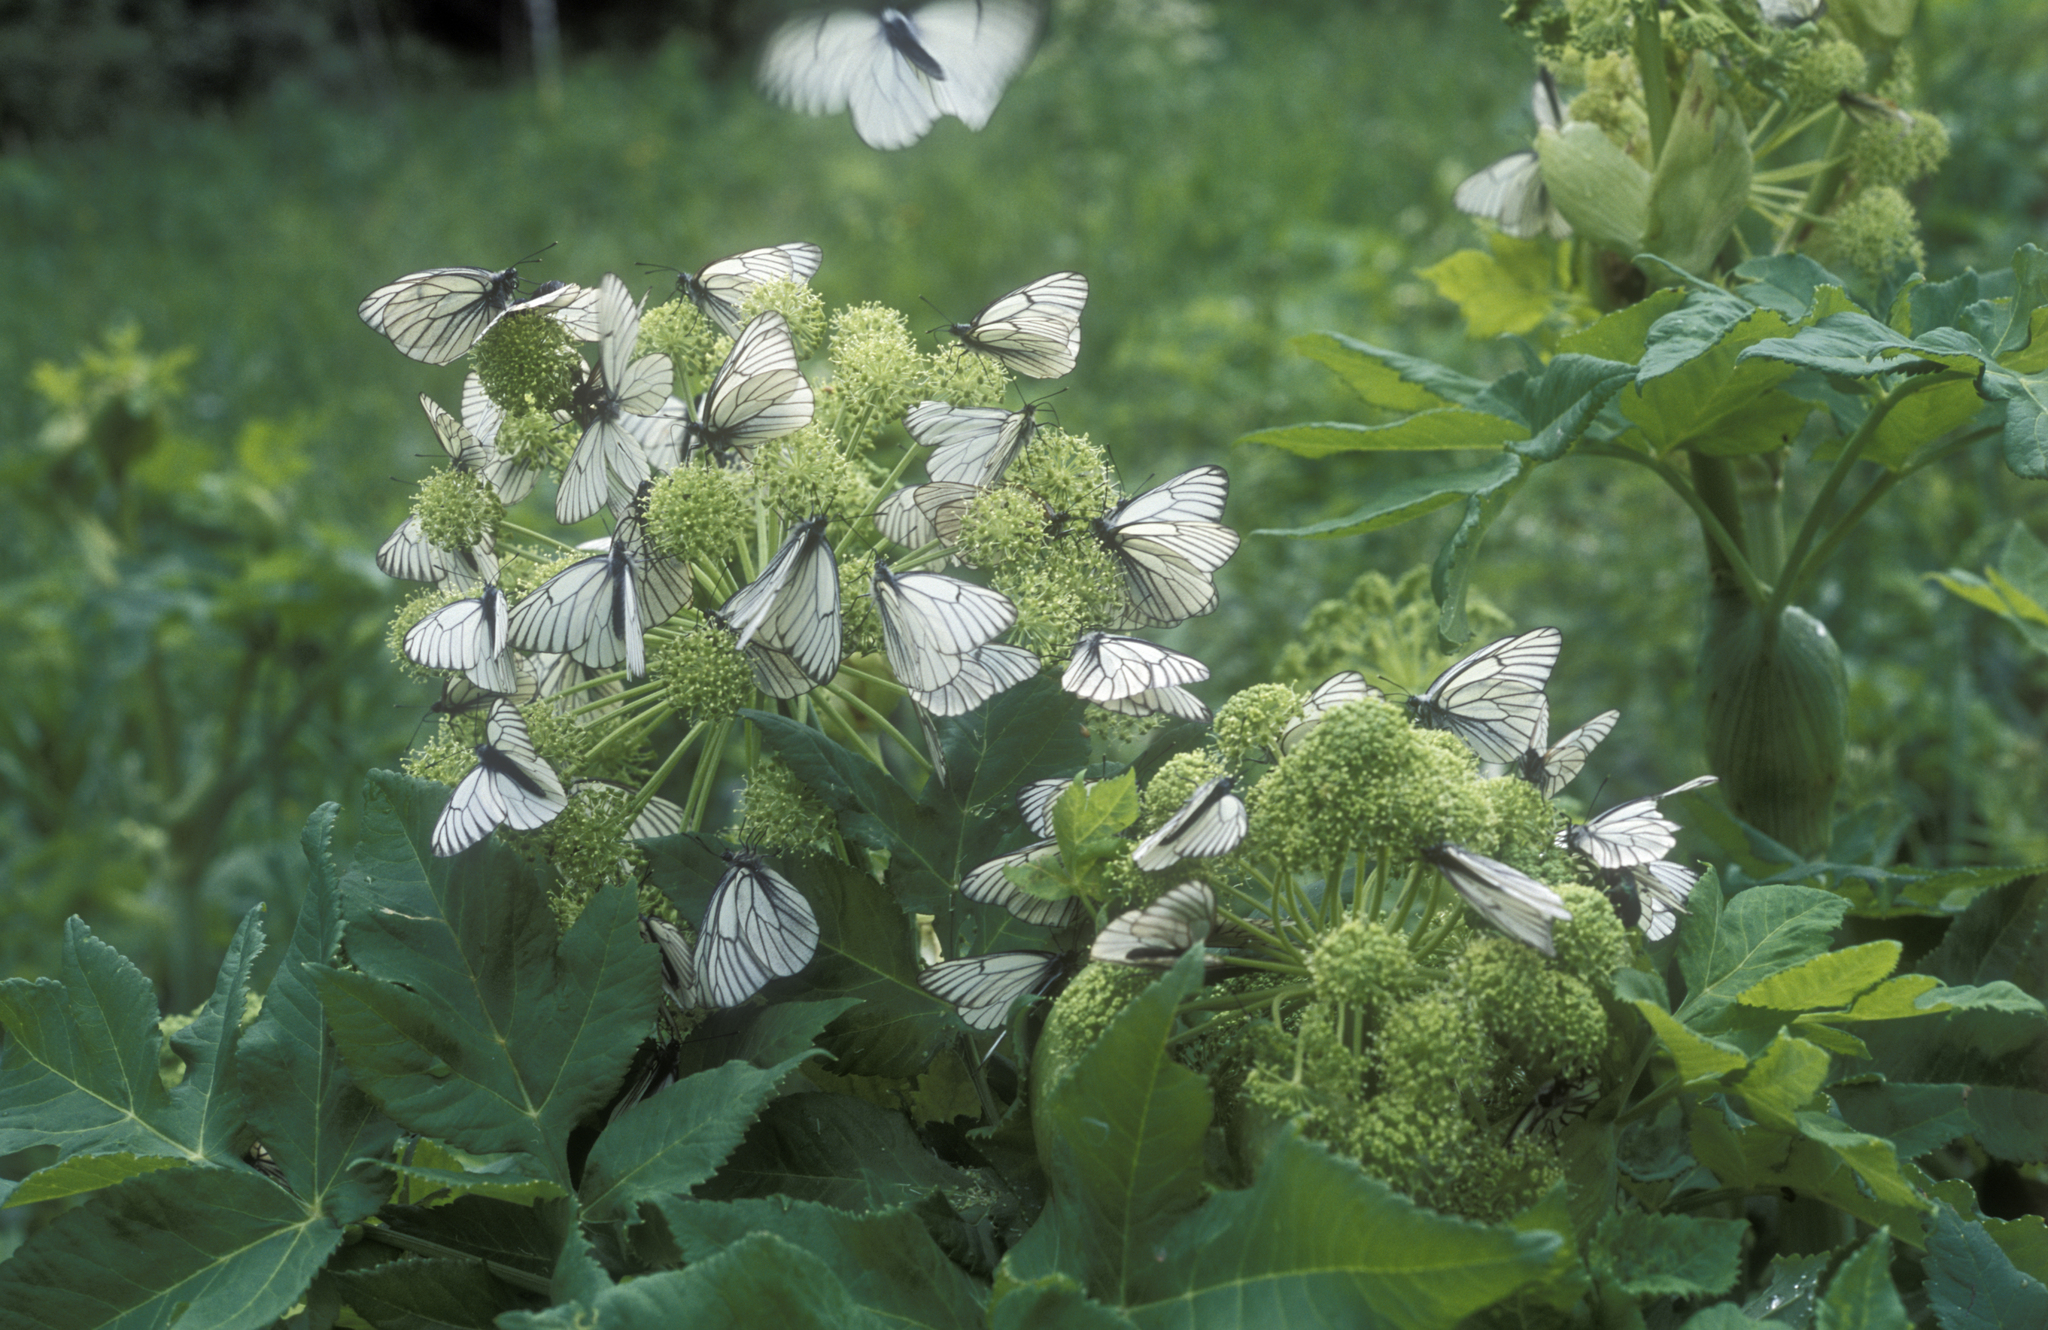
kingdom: Plantae
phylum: Tracheophyta
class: Magnoliopsida
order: Apiales
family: Apiaceae
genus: Angelica
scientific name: Angelica decurrens
